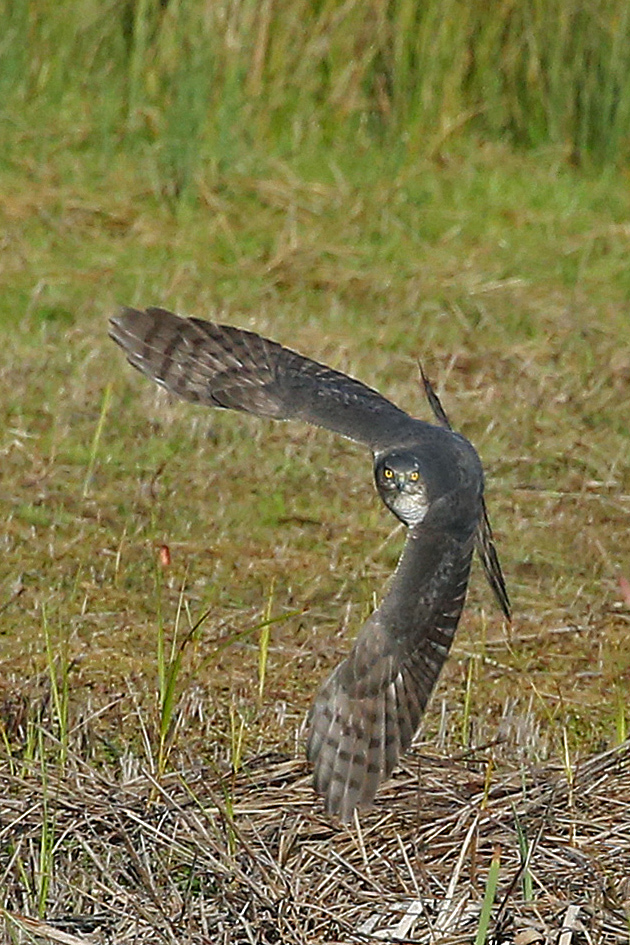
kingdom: Animalia
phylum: Chordata
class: Aves
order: Accipitriformes
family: Accipitridae
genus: Accipiter
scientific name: Accipiter nisus
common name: Eurasian sparrowhawk
